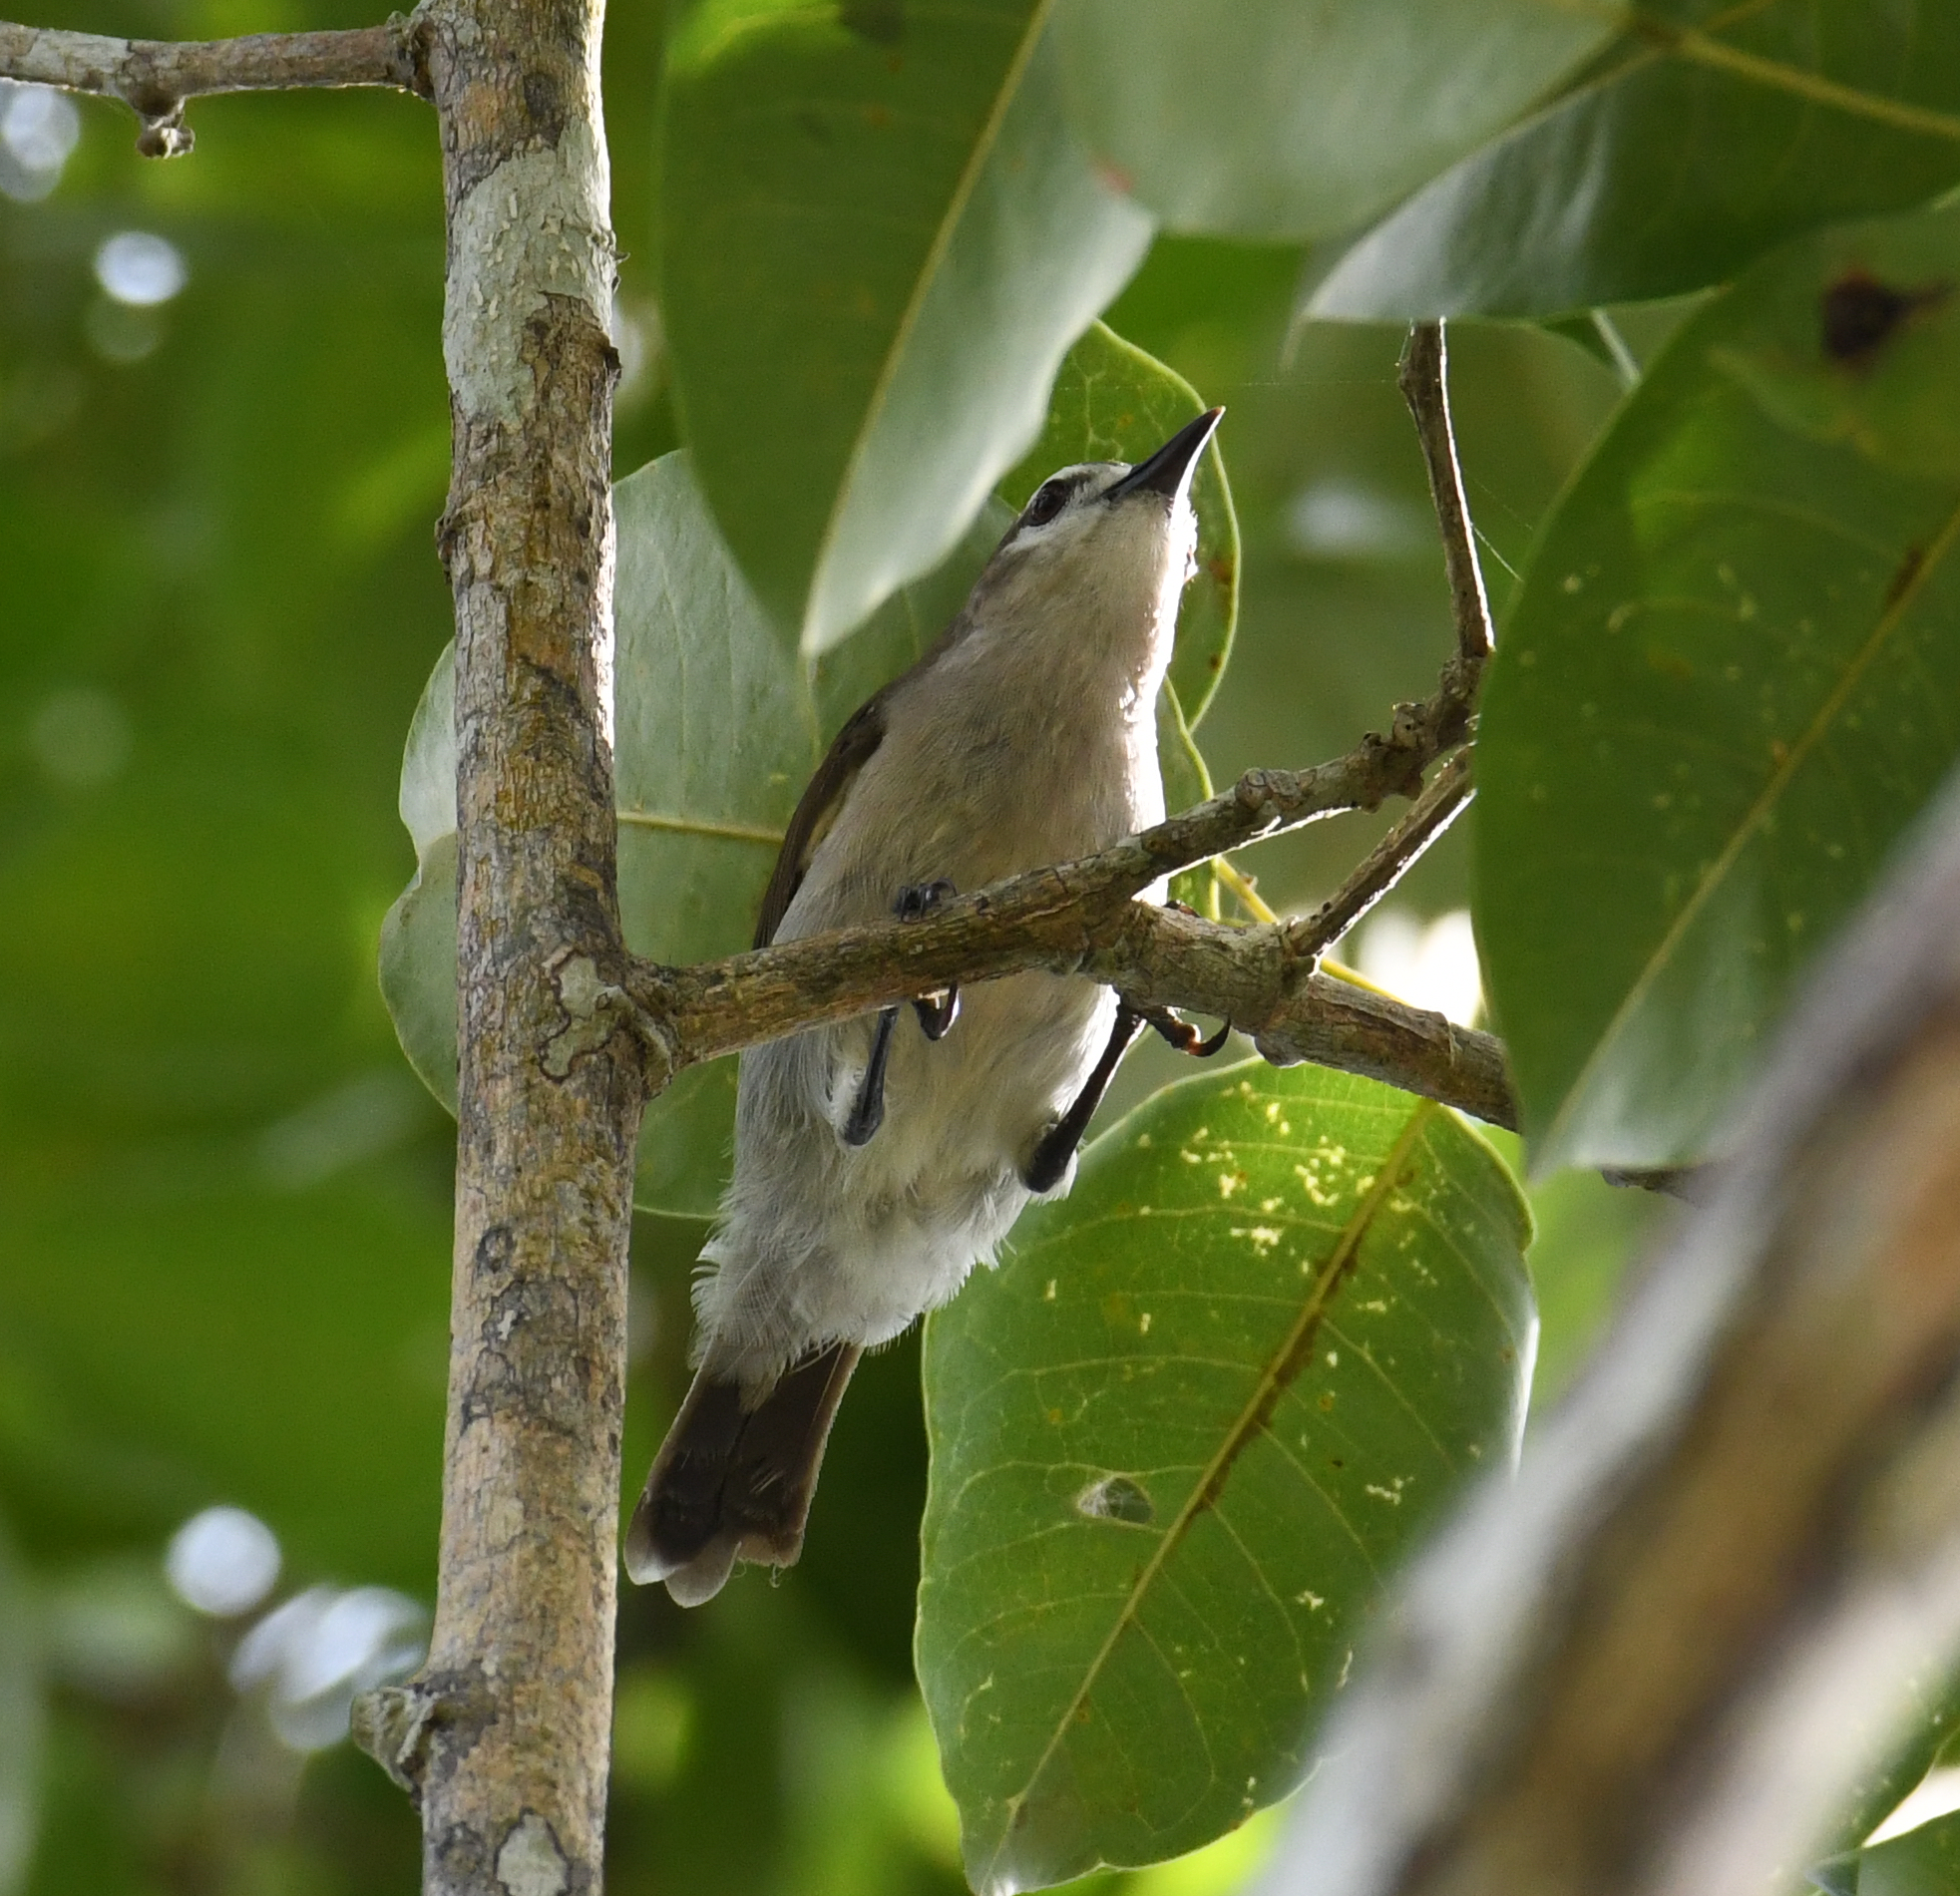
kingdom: Animalia
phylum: Chordata
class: Aves
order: Passeriformes
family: Nectariniidae
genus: Anthreptes
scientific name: Anthreptes gabonicus
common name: Mangrove sunbird
